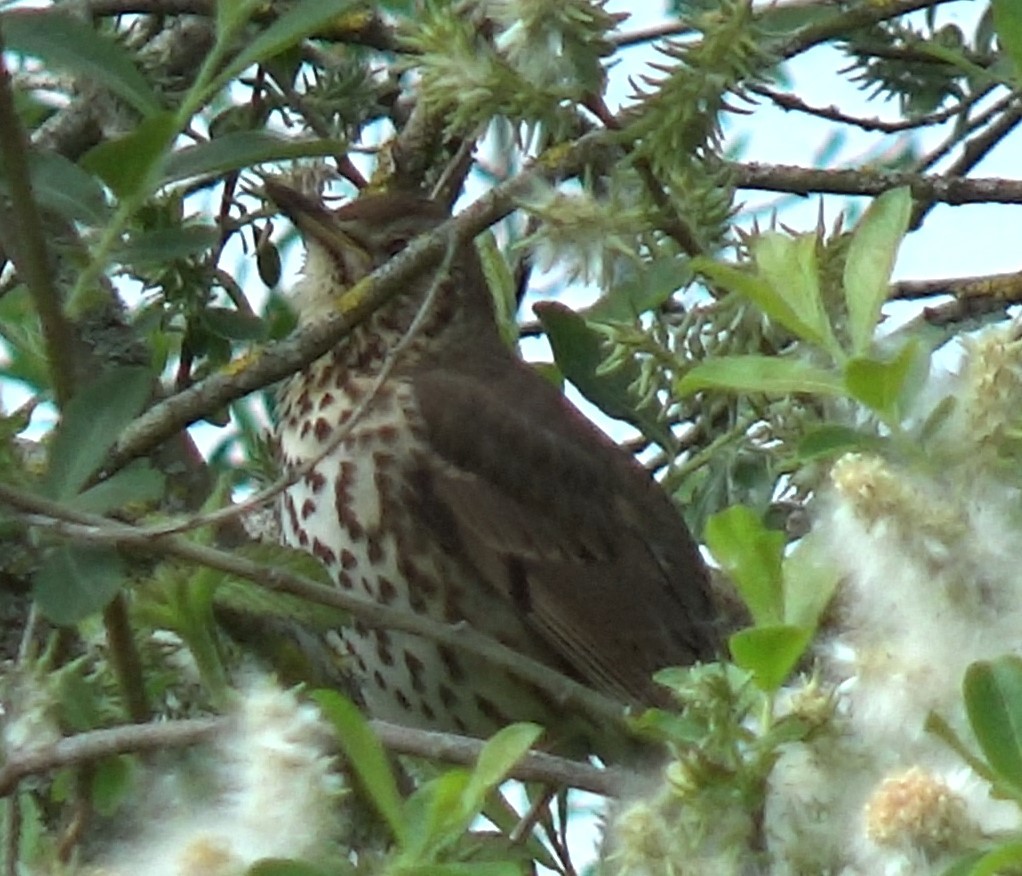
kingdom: Animalia
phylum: Chordata
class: Aves
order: Passeriformes
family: Turdidae
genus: Turdus
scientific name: Turdus philomelos
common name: Song thrush
